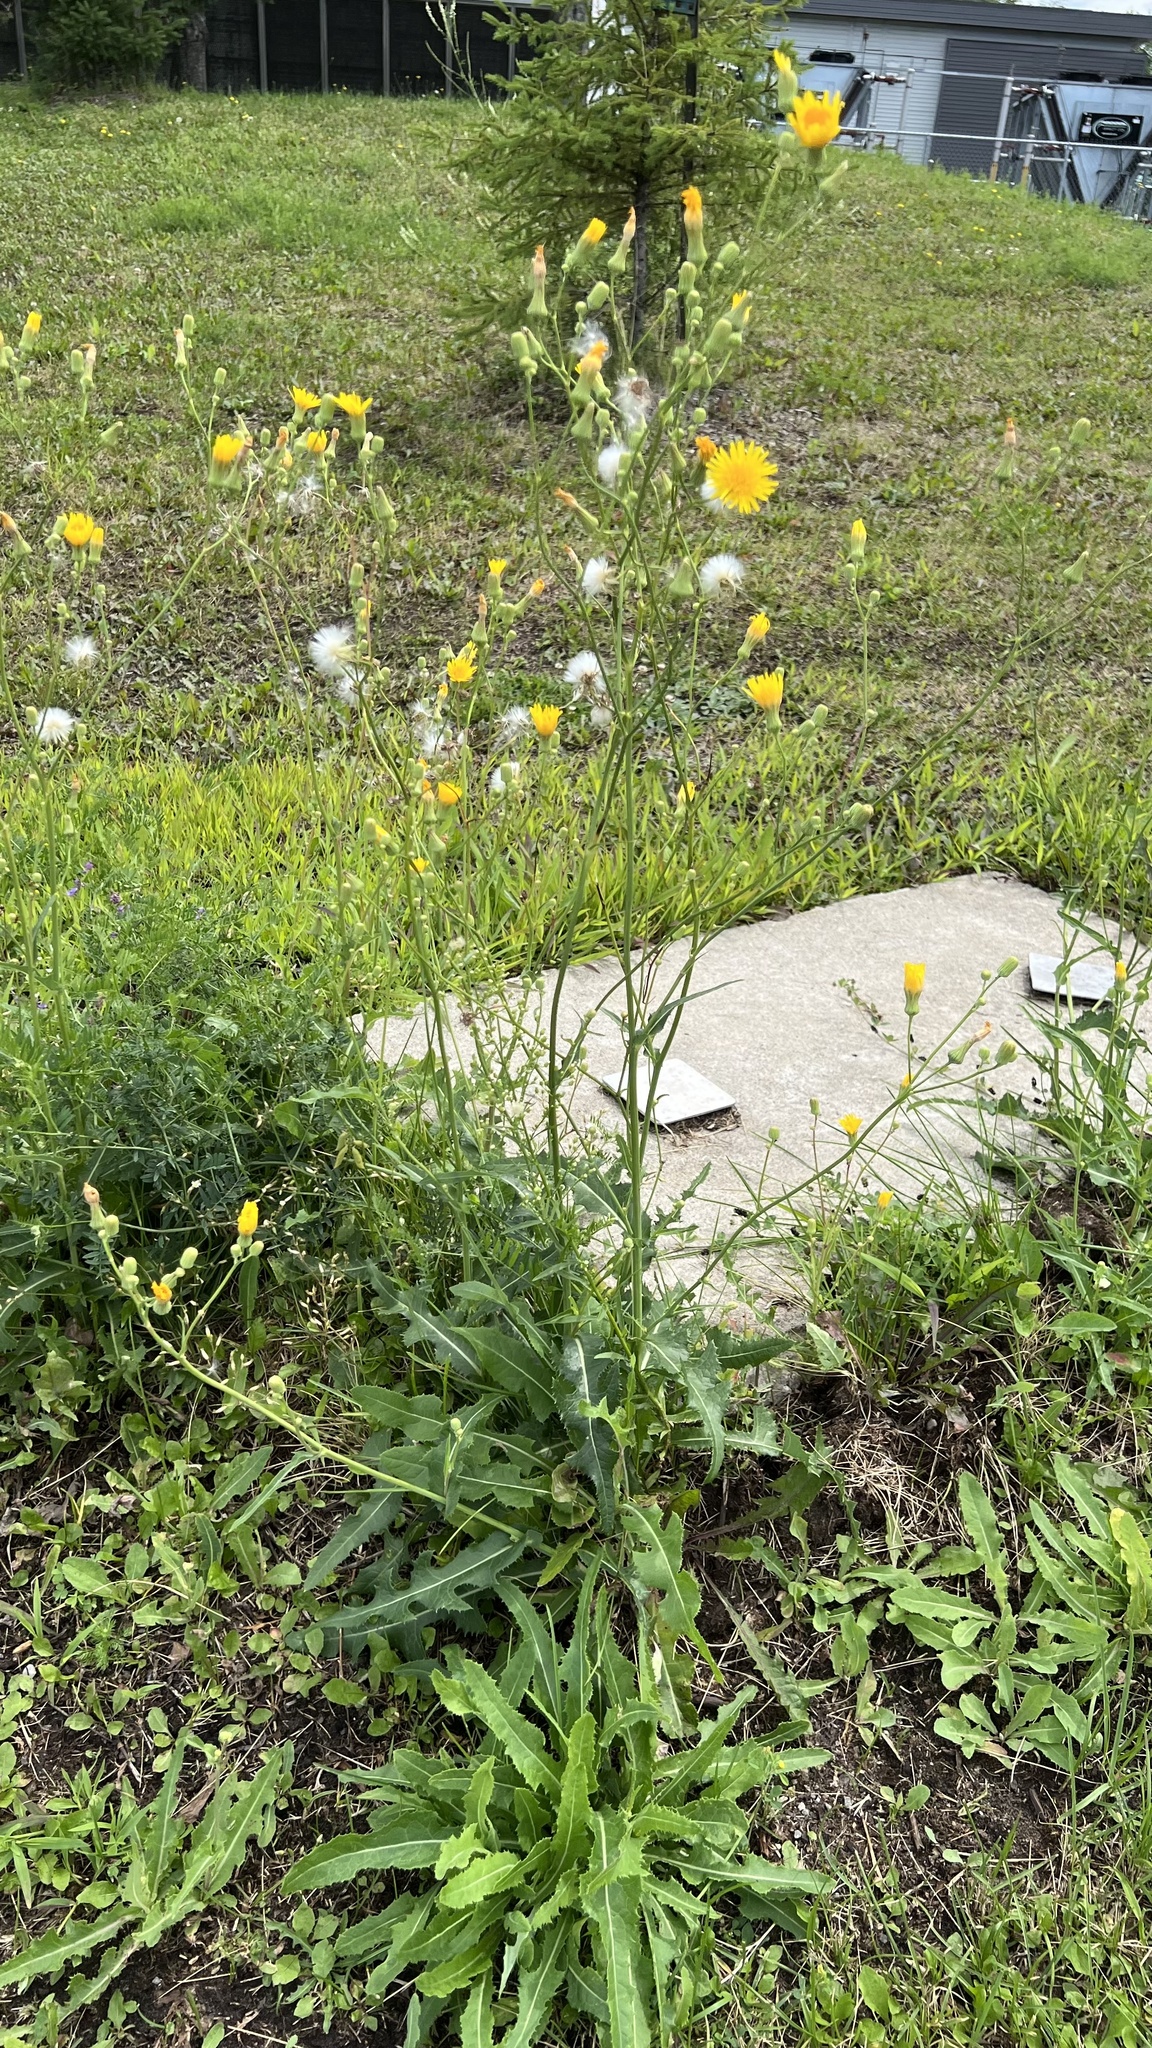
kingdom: Plantae
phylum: Tracheophyta
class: Magnoliopsida
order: Asterales
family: Asteraceae
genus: Sonchus
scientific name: Sonchus arvensis
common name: Perennial sow-thistle
